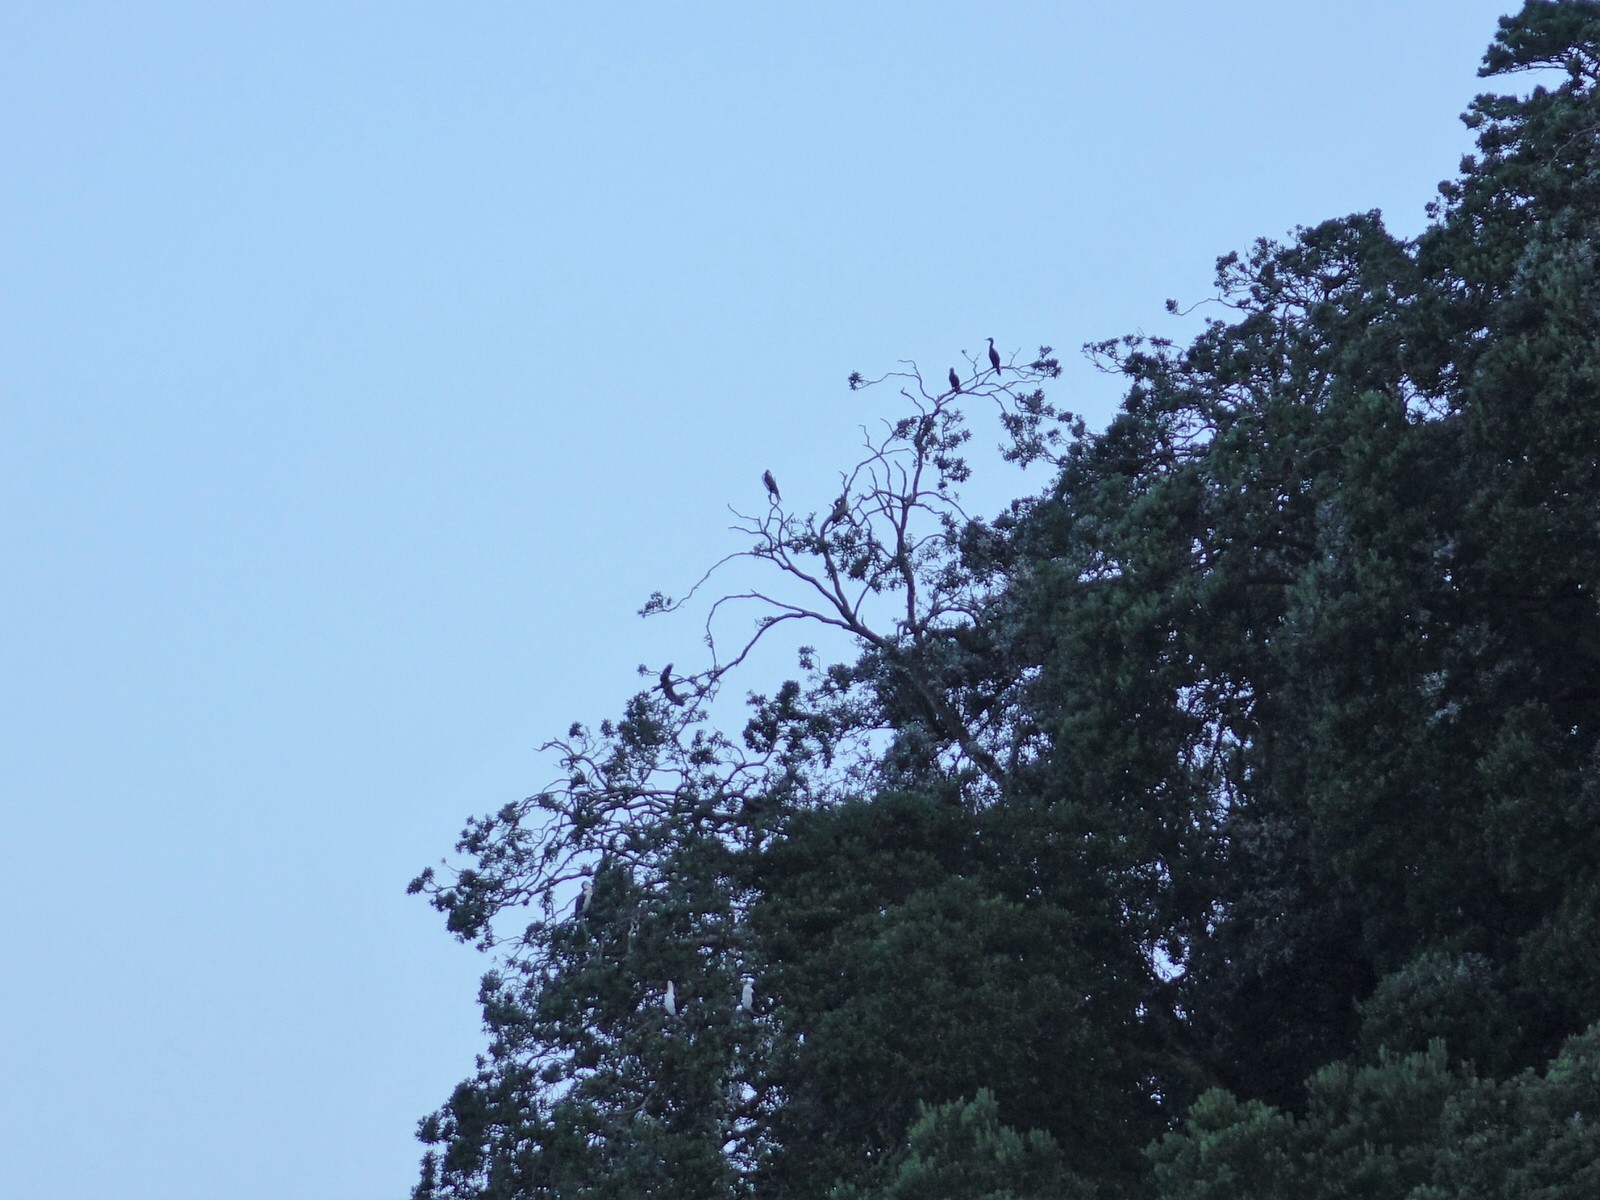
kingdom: Animalia
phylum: Chordata
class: Aves
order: Suliformes
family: Phalacrocoracidae
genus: Phalacrocorax
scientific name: Phalacrocorax varius
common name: Pied cormorant
